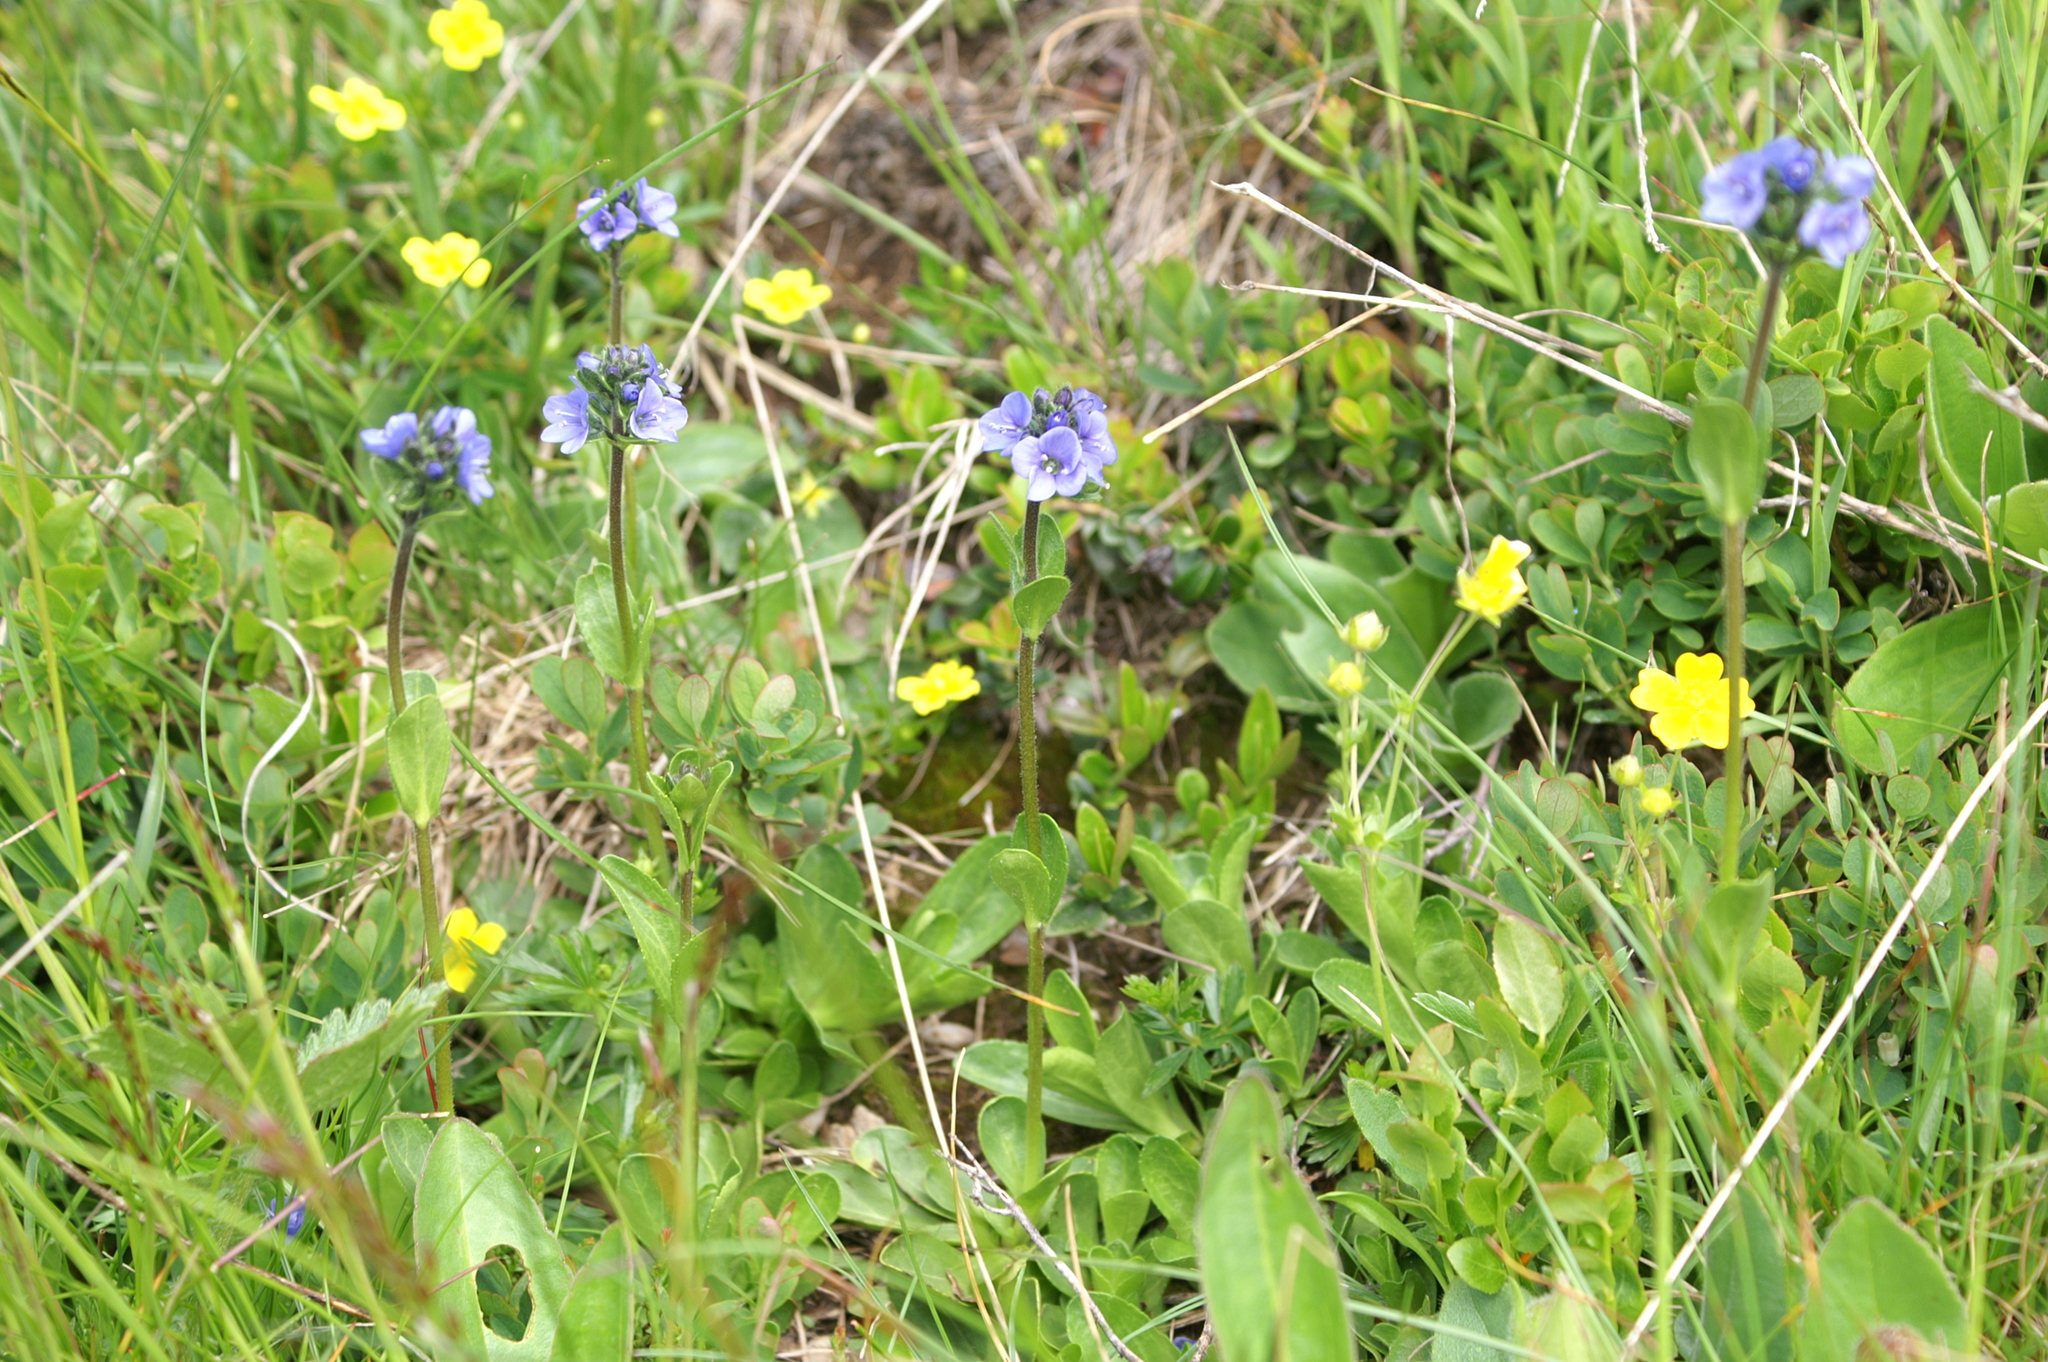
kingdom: Plantae
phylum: Tracheophyta
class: Magnoliopsida
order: Lamiales
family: Plantaginaceae
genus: Veronica
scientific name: Veronica bellidioides
